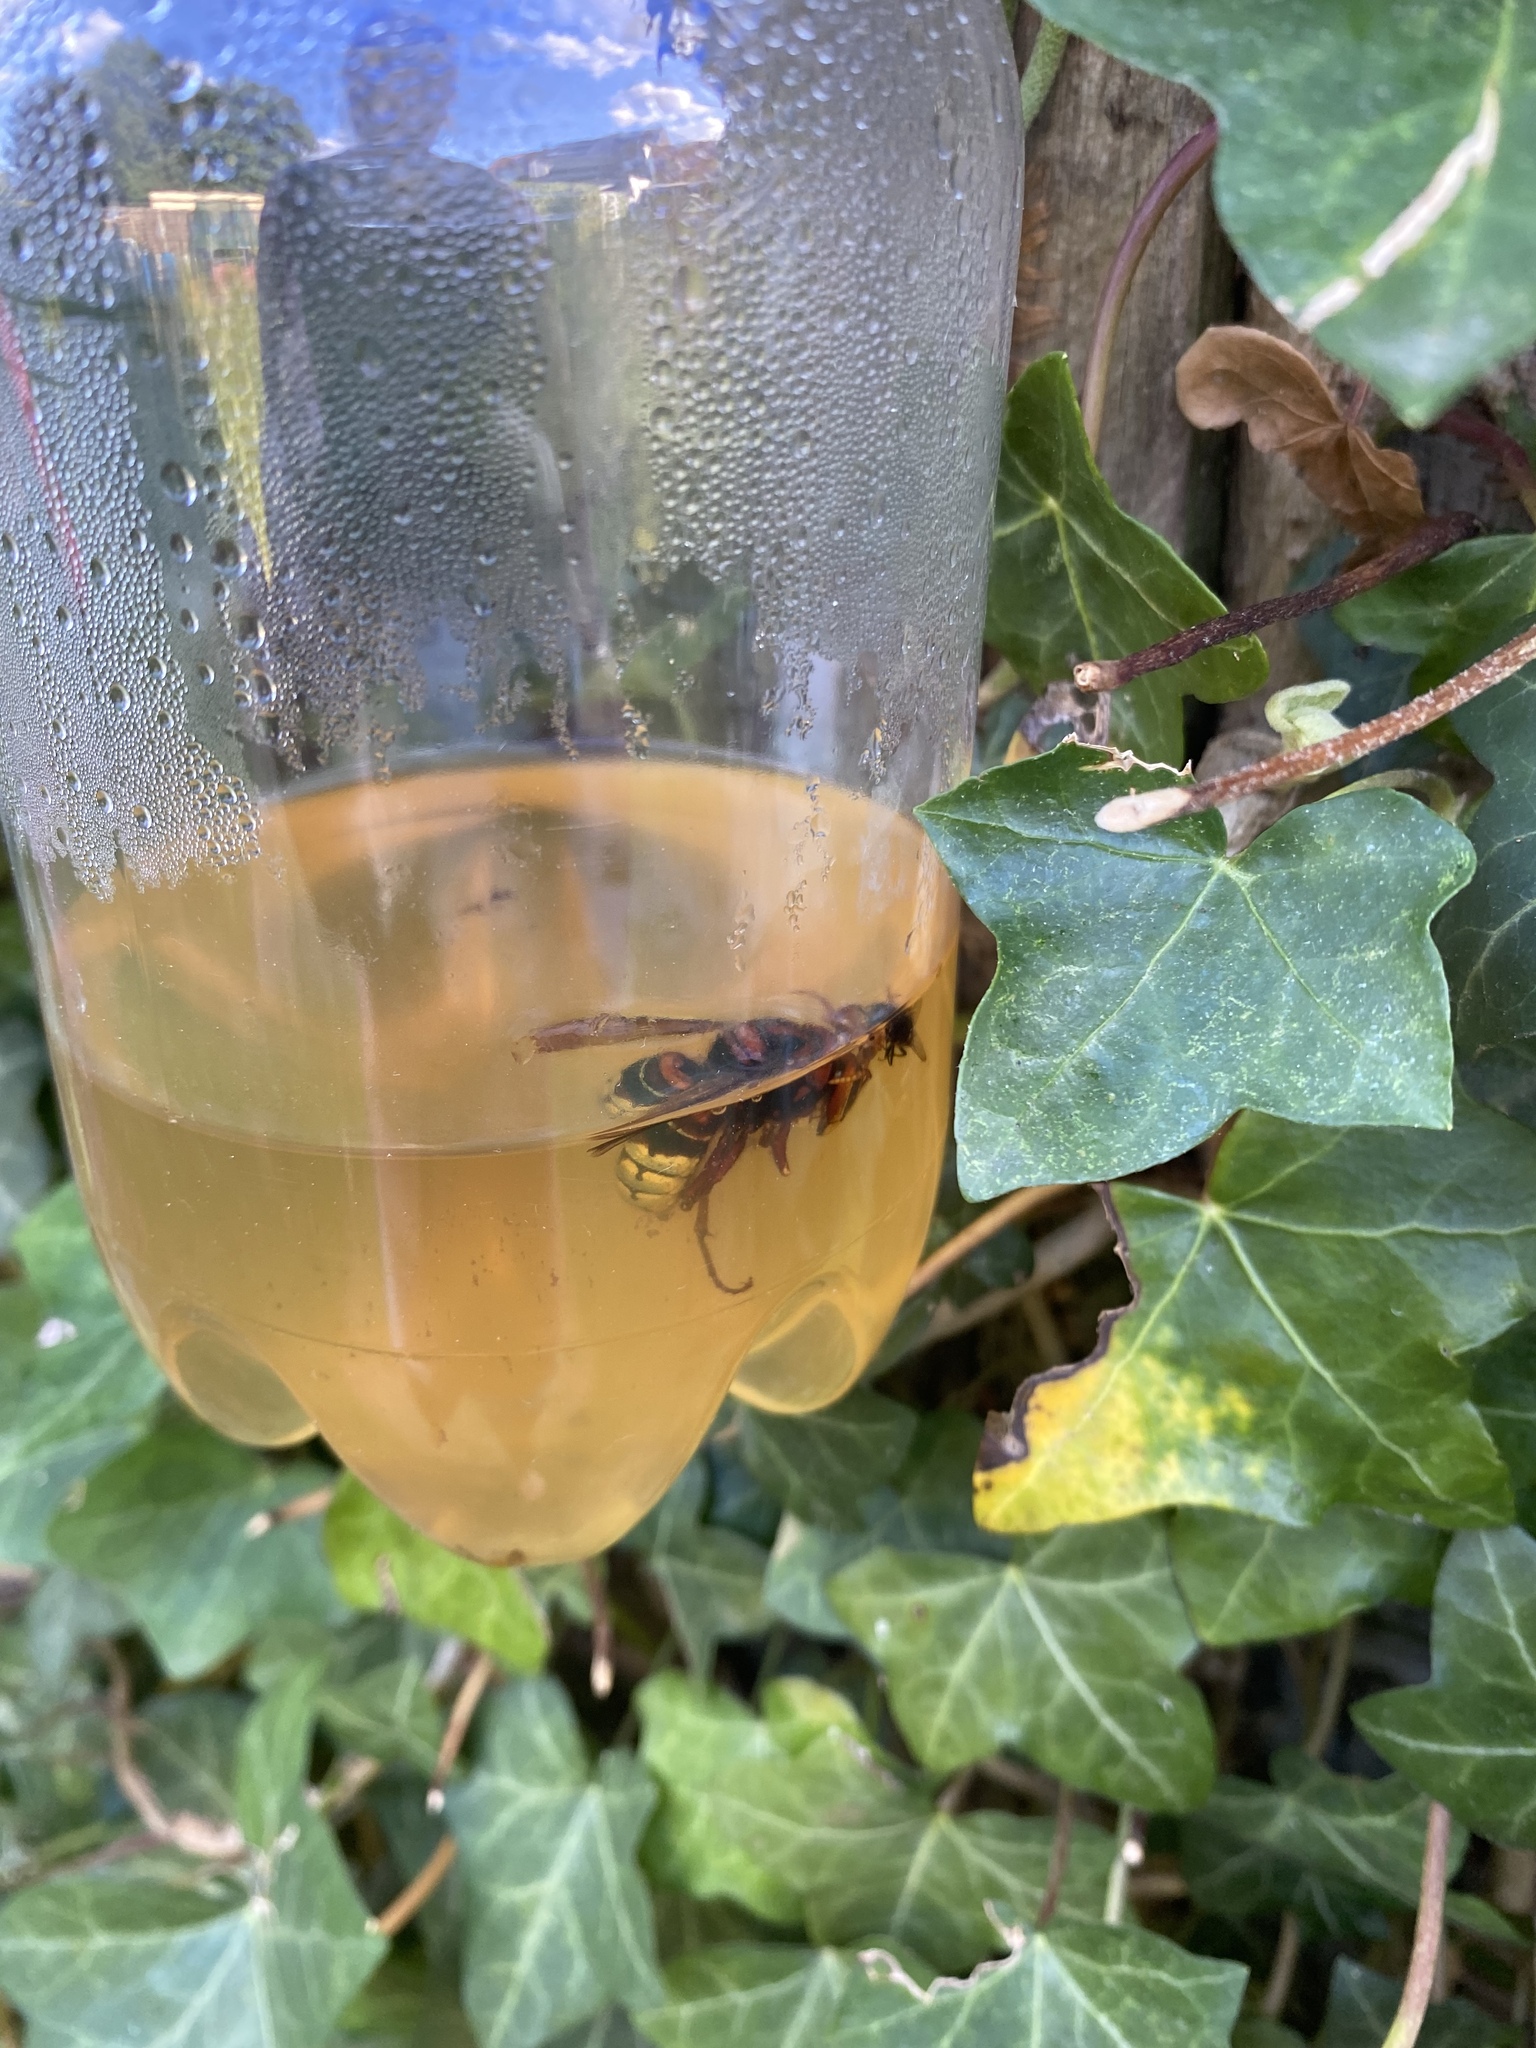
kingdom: Animalia
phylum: Arthropoda
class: Insecta
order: Hymenoptera
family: Vespidae
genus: Vespa
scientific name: Vespa crabro
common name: Hornet
